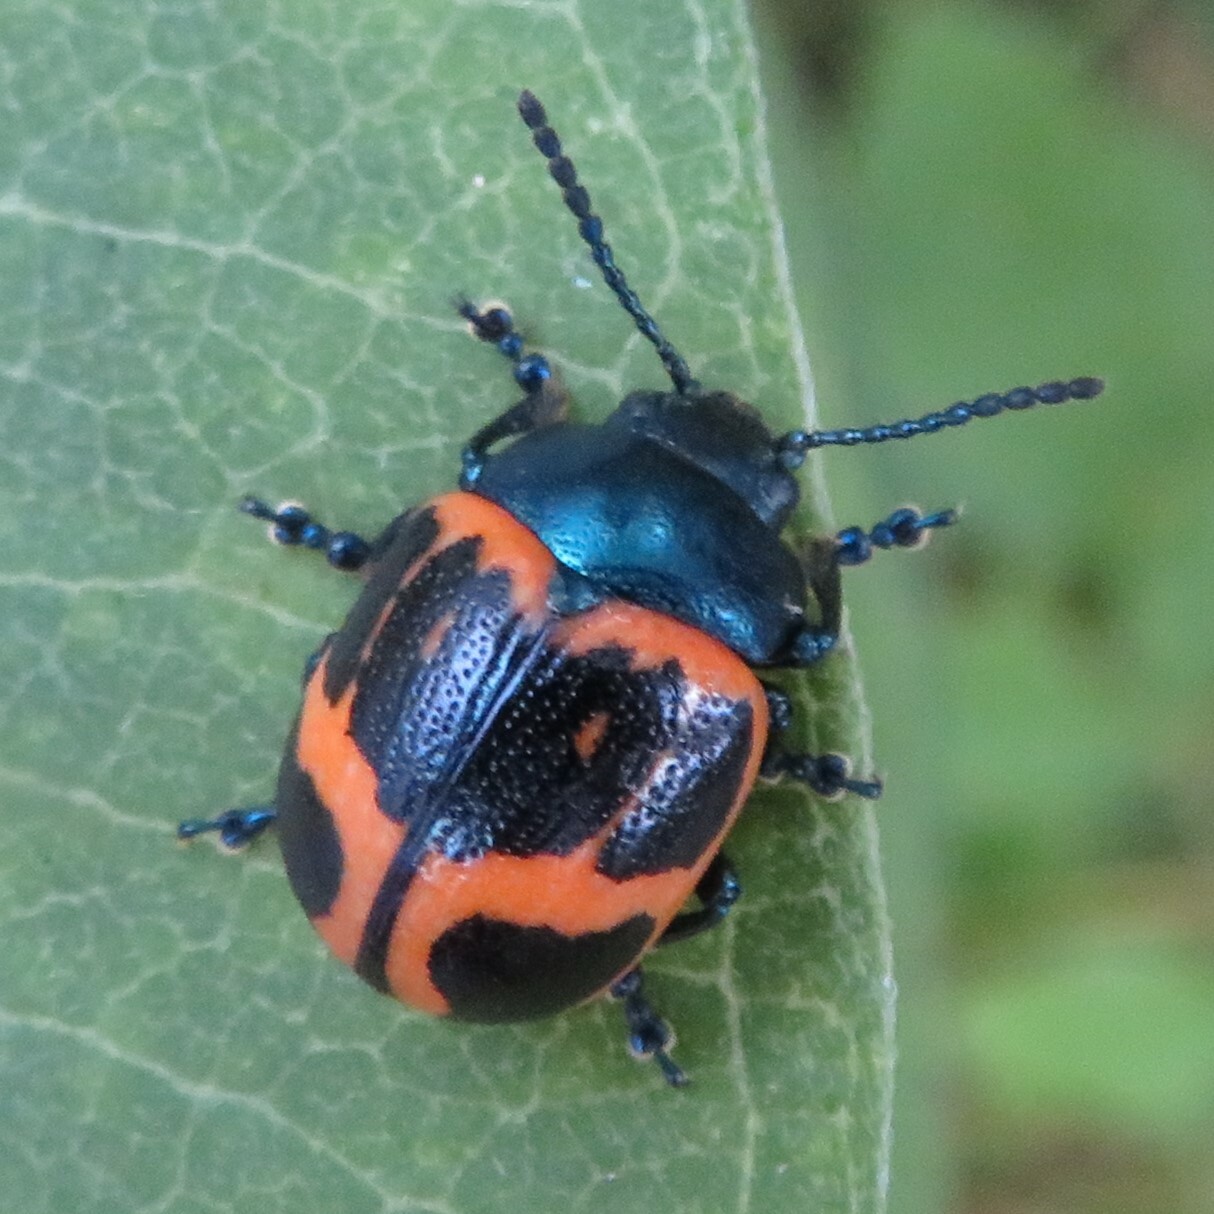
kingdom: Animalia
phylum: Arthropoda
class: Insecta
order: Coleoptera
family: Chrysomelidae
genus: Labidomera
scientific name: Labidomera clivicollis
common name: Swamp milkweed leaf beetle
